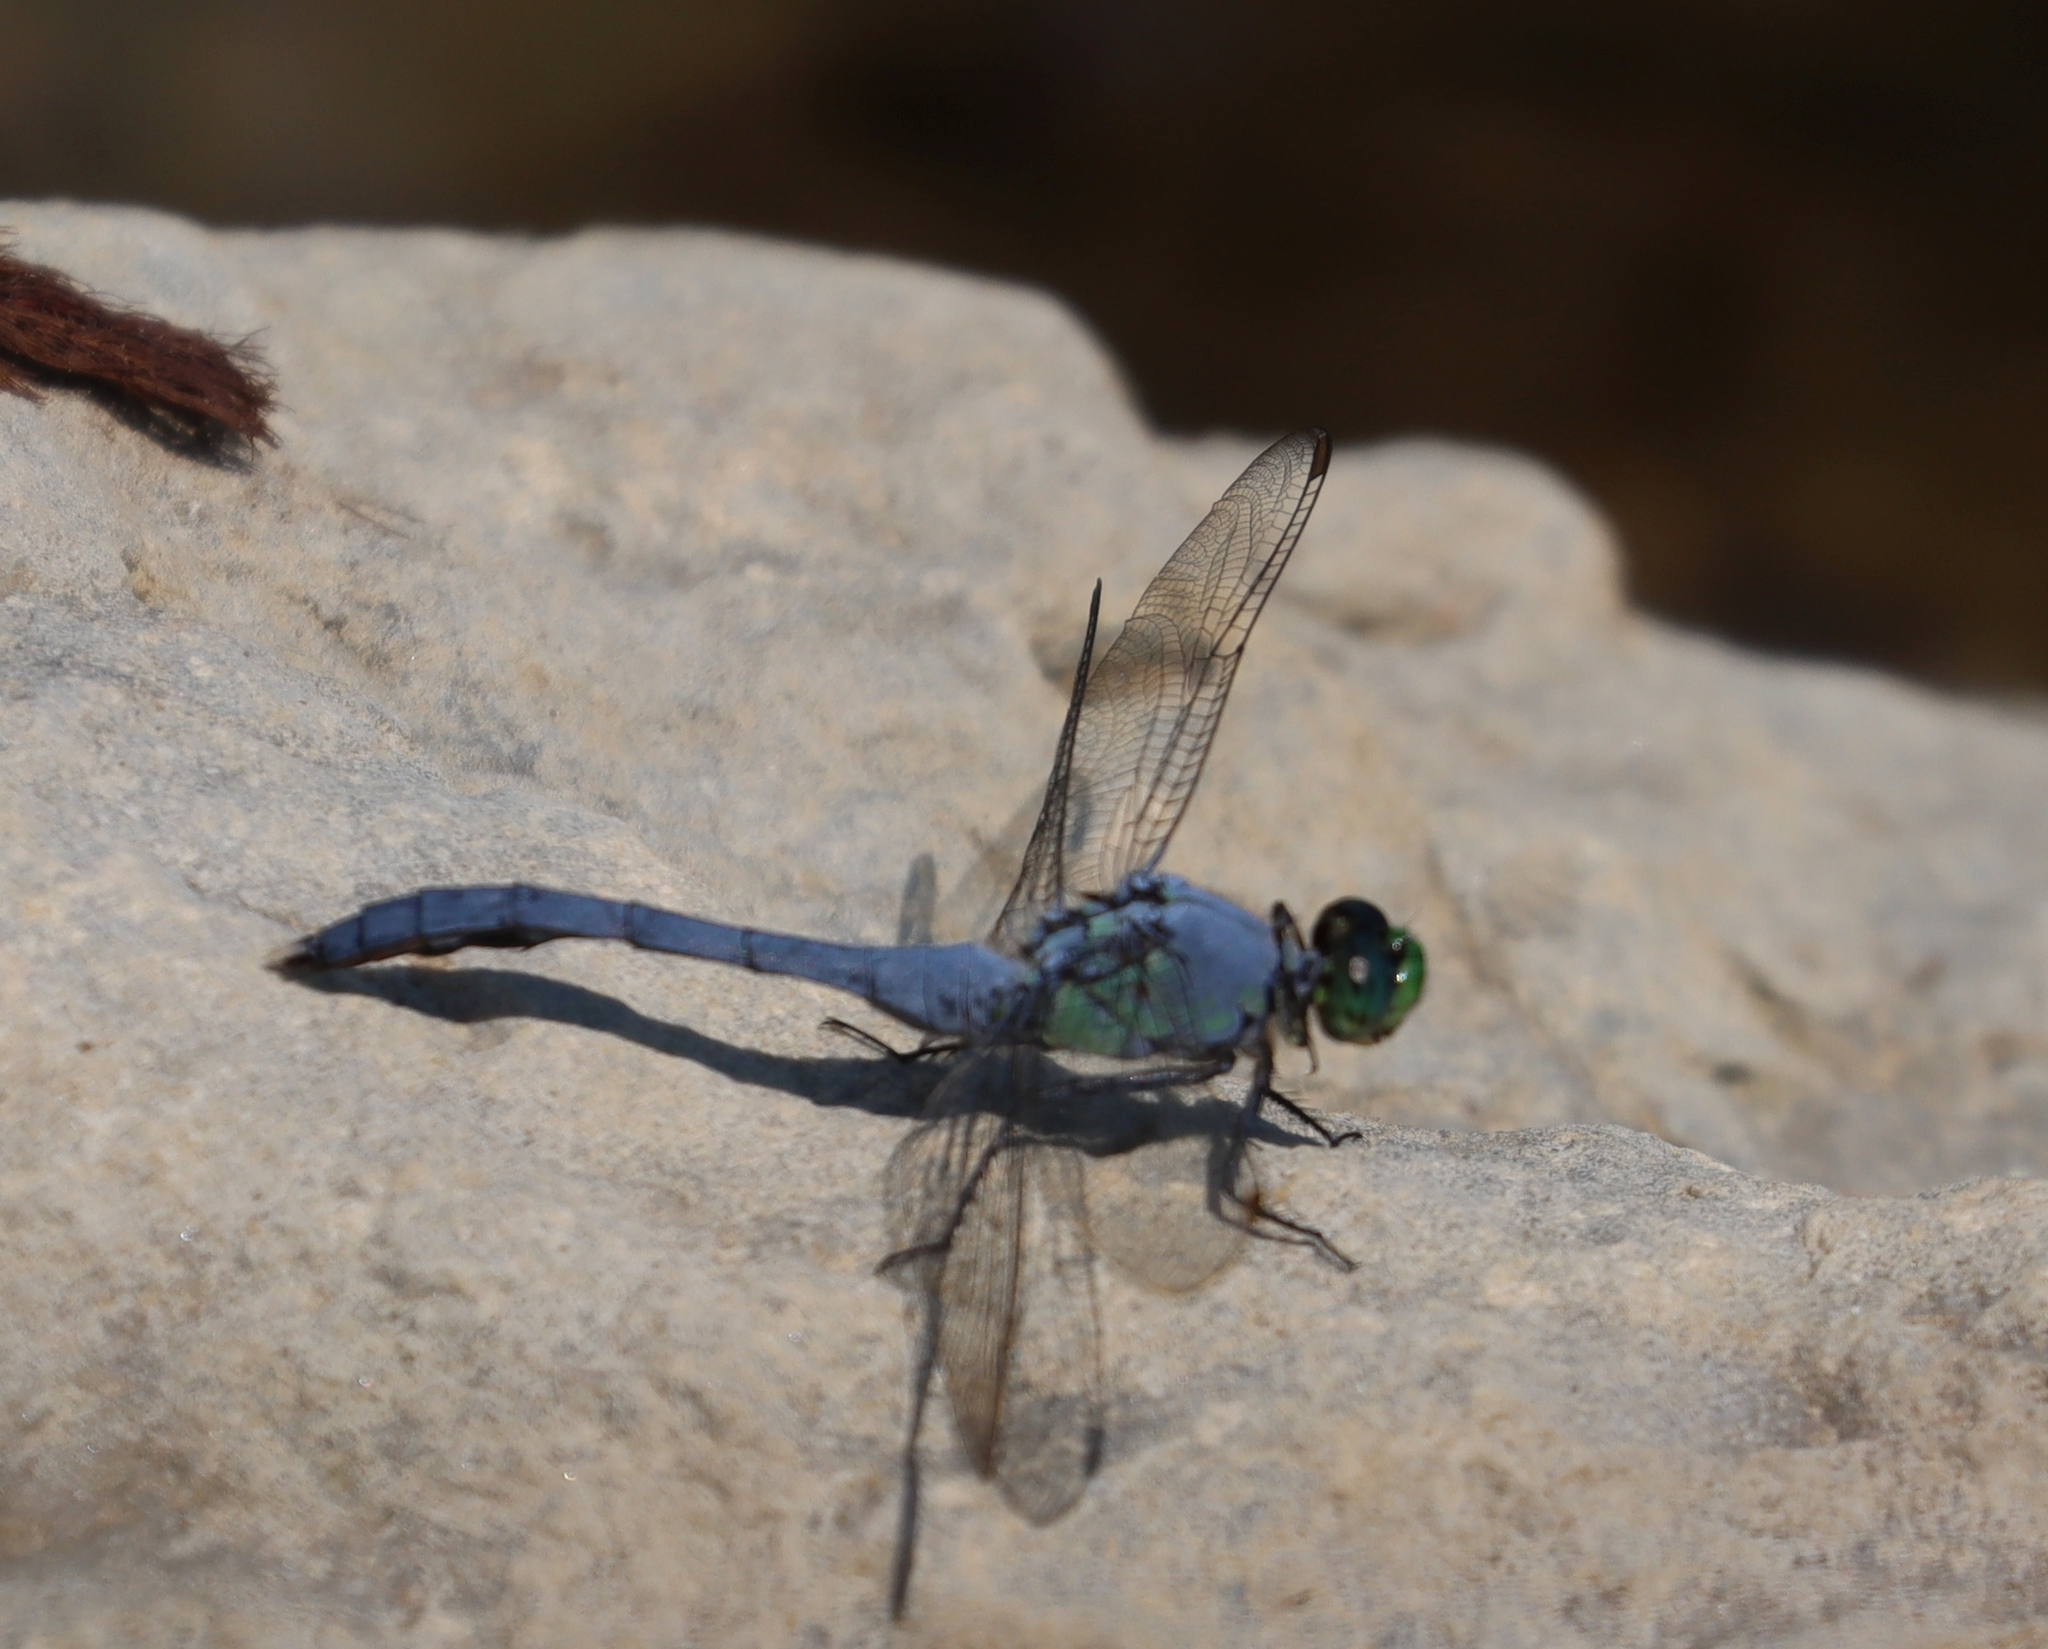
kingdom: Animalia
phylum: Arthropoda
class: Insecta
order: Odonata
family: Libellulidae
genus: Erythemis
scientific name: Erythemis simplicicollis
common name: Eastern pondhawk
